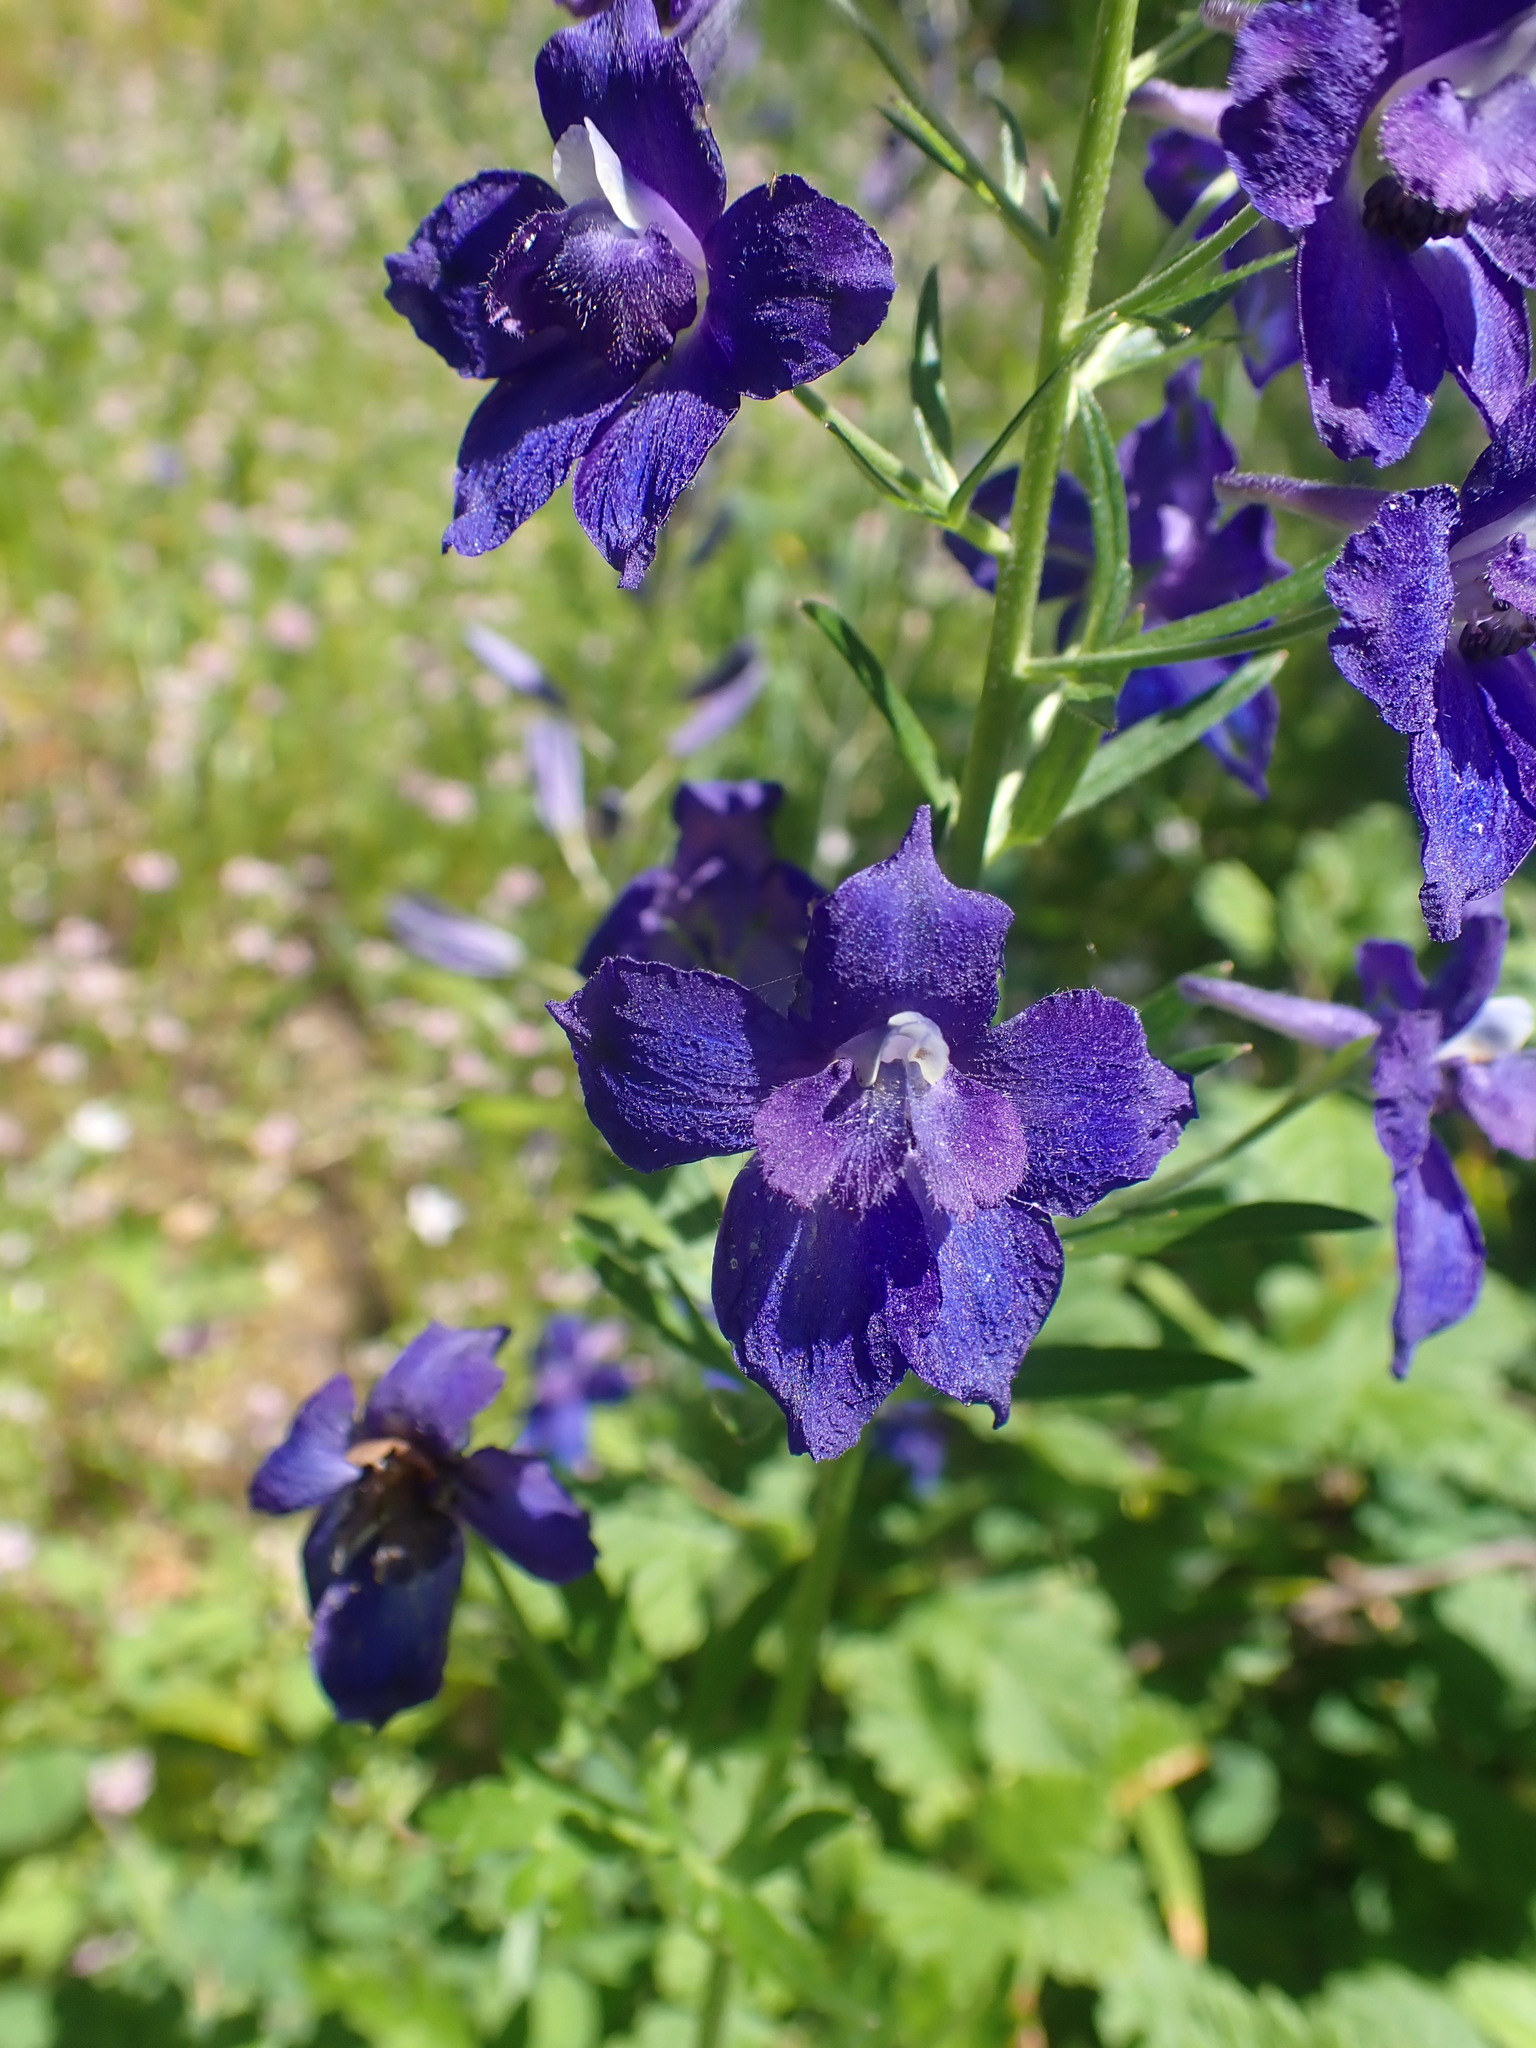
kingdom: Plantae
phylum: Tracheophyta
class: Magnoliopsida
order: Ranunculales
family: Ranunculaceae
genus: Delphinium
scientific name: Delphinium menziesii
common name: Menzies's larkspur
